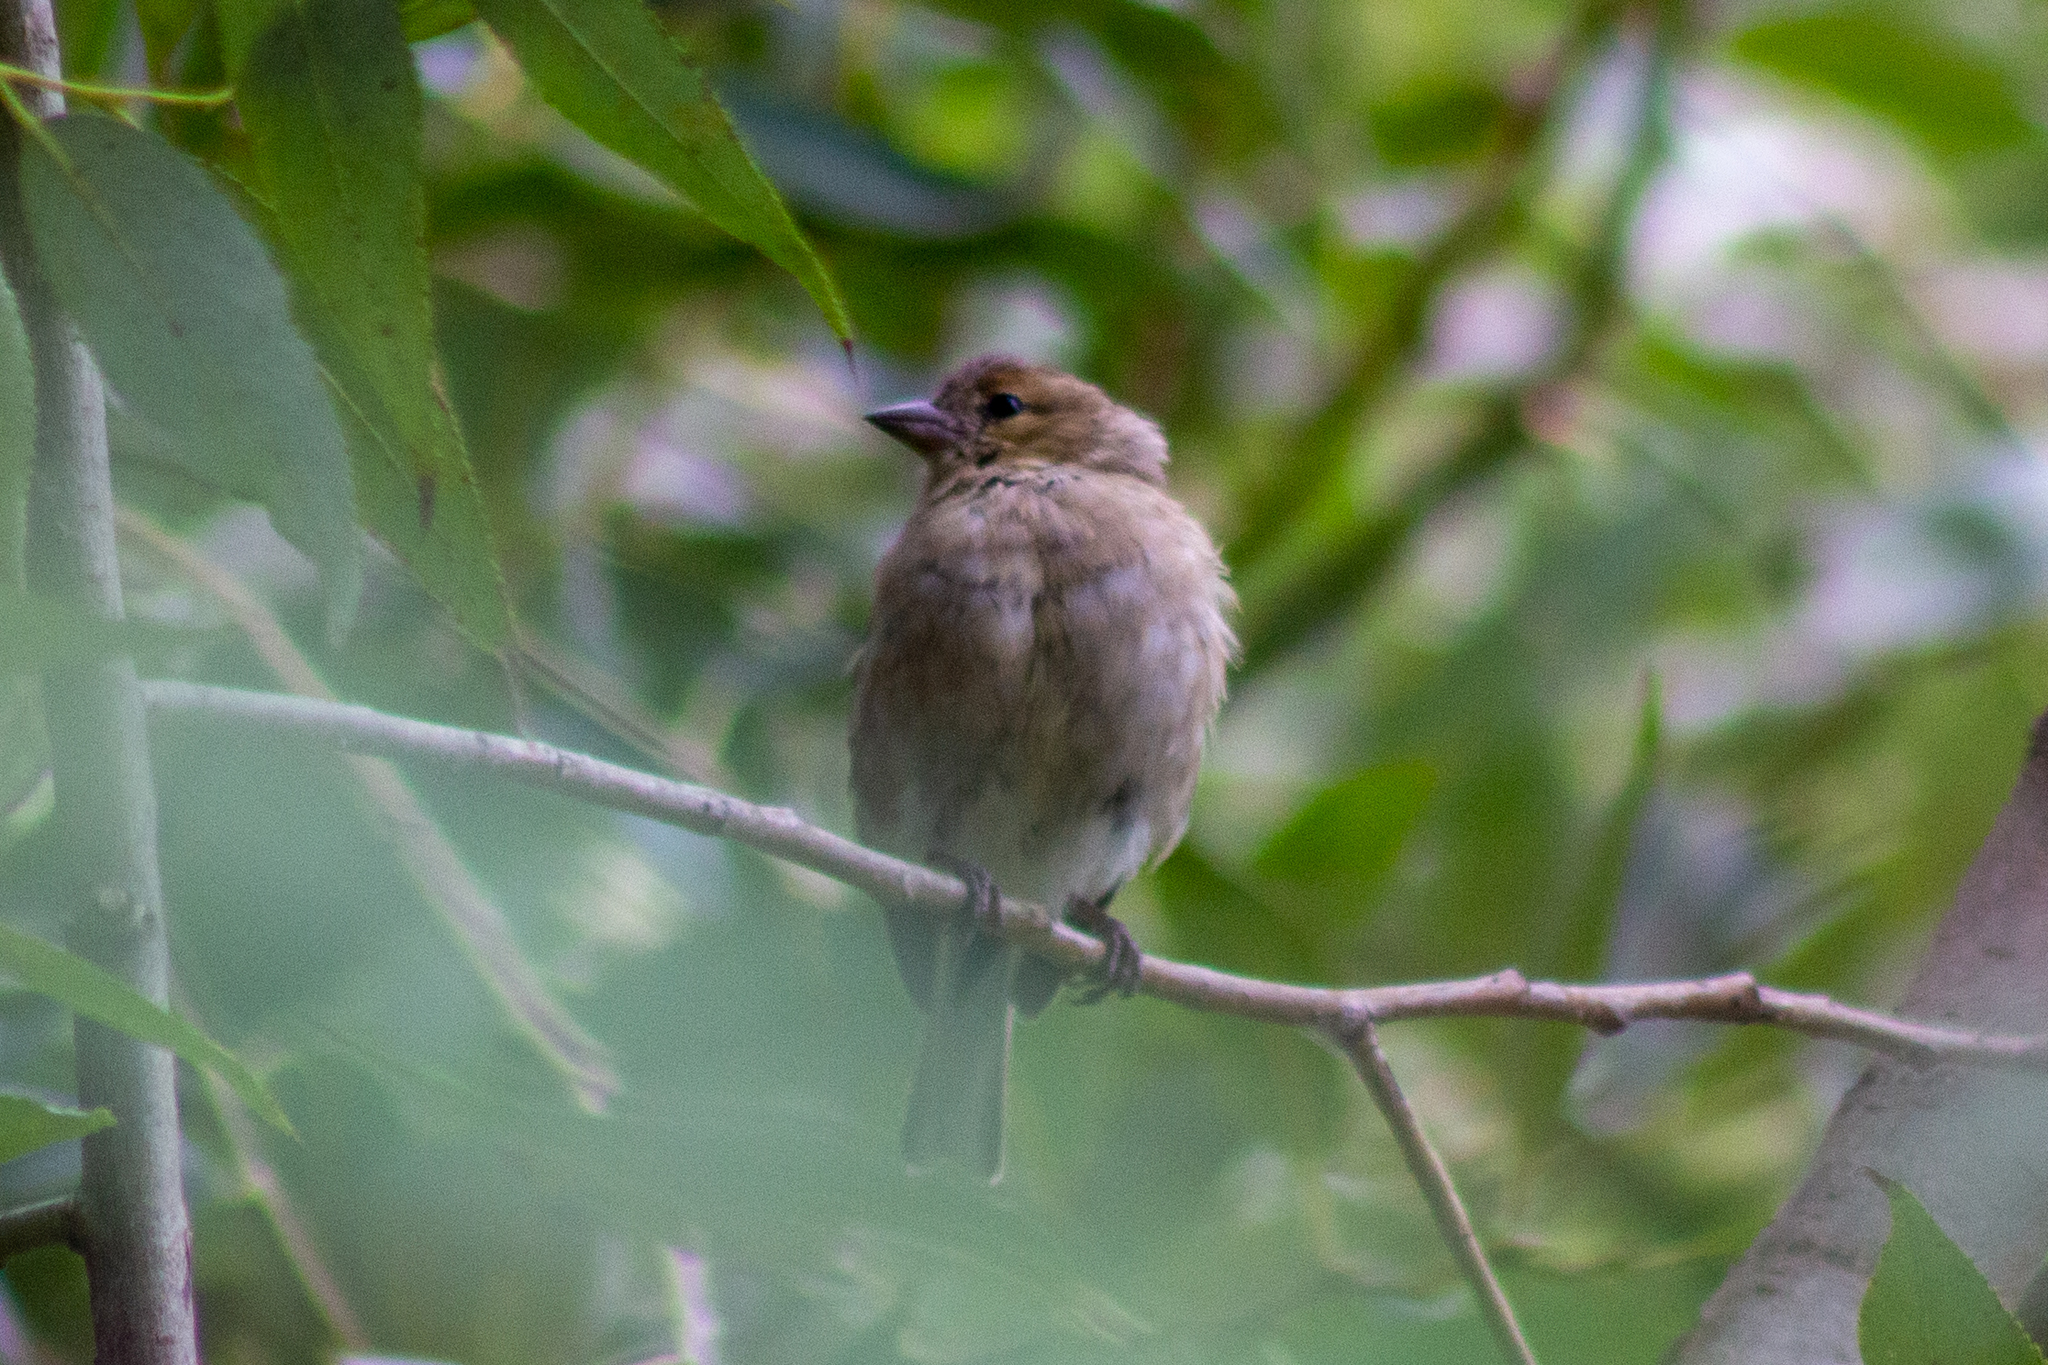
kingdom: Animalia
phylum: Chordata
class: Aves
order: Passeriformes
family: Fringillidae
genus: Fringilla
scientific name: Fringilla coelebs
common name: Common chaffinch
